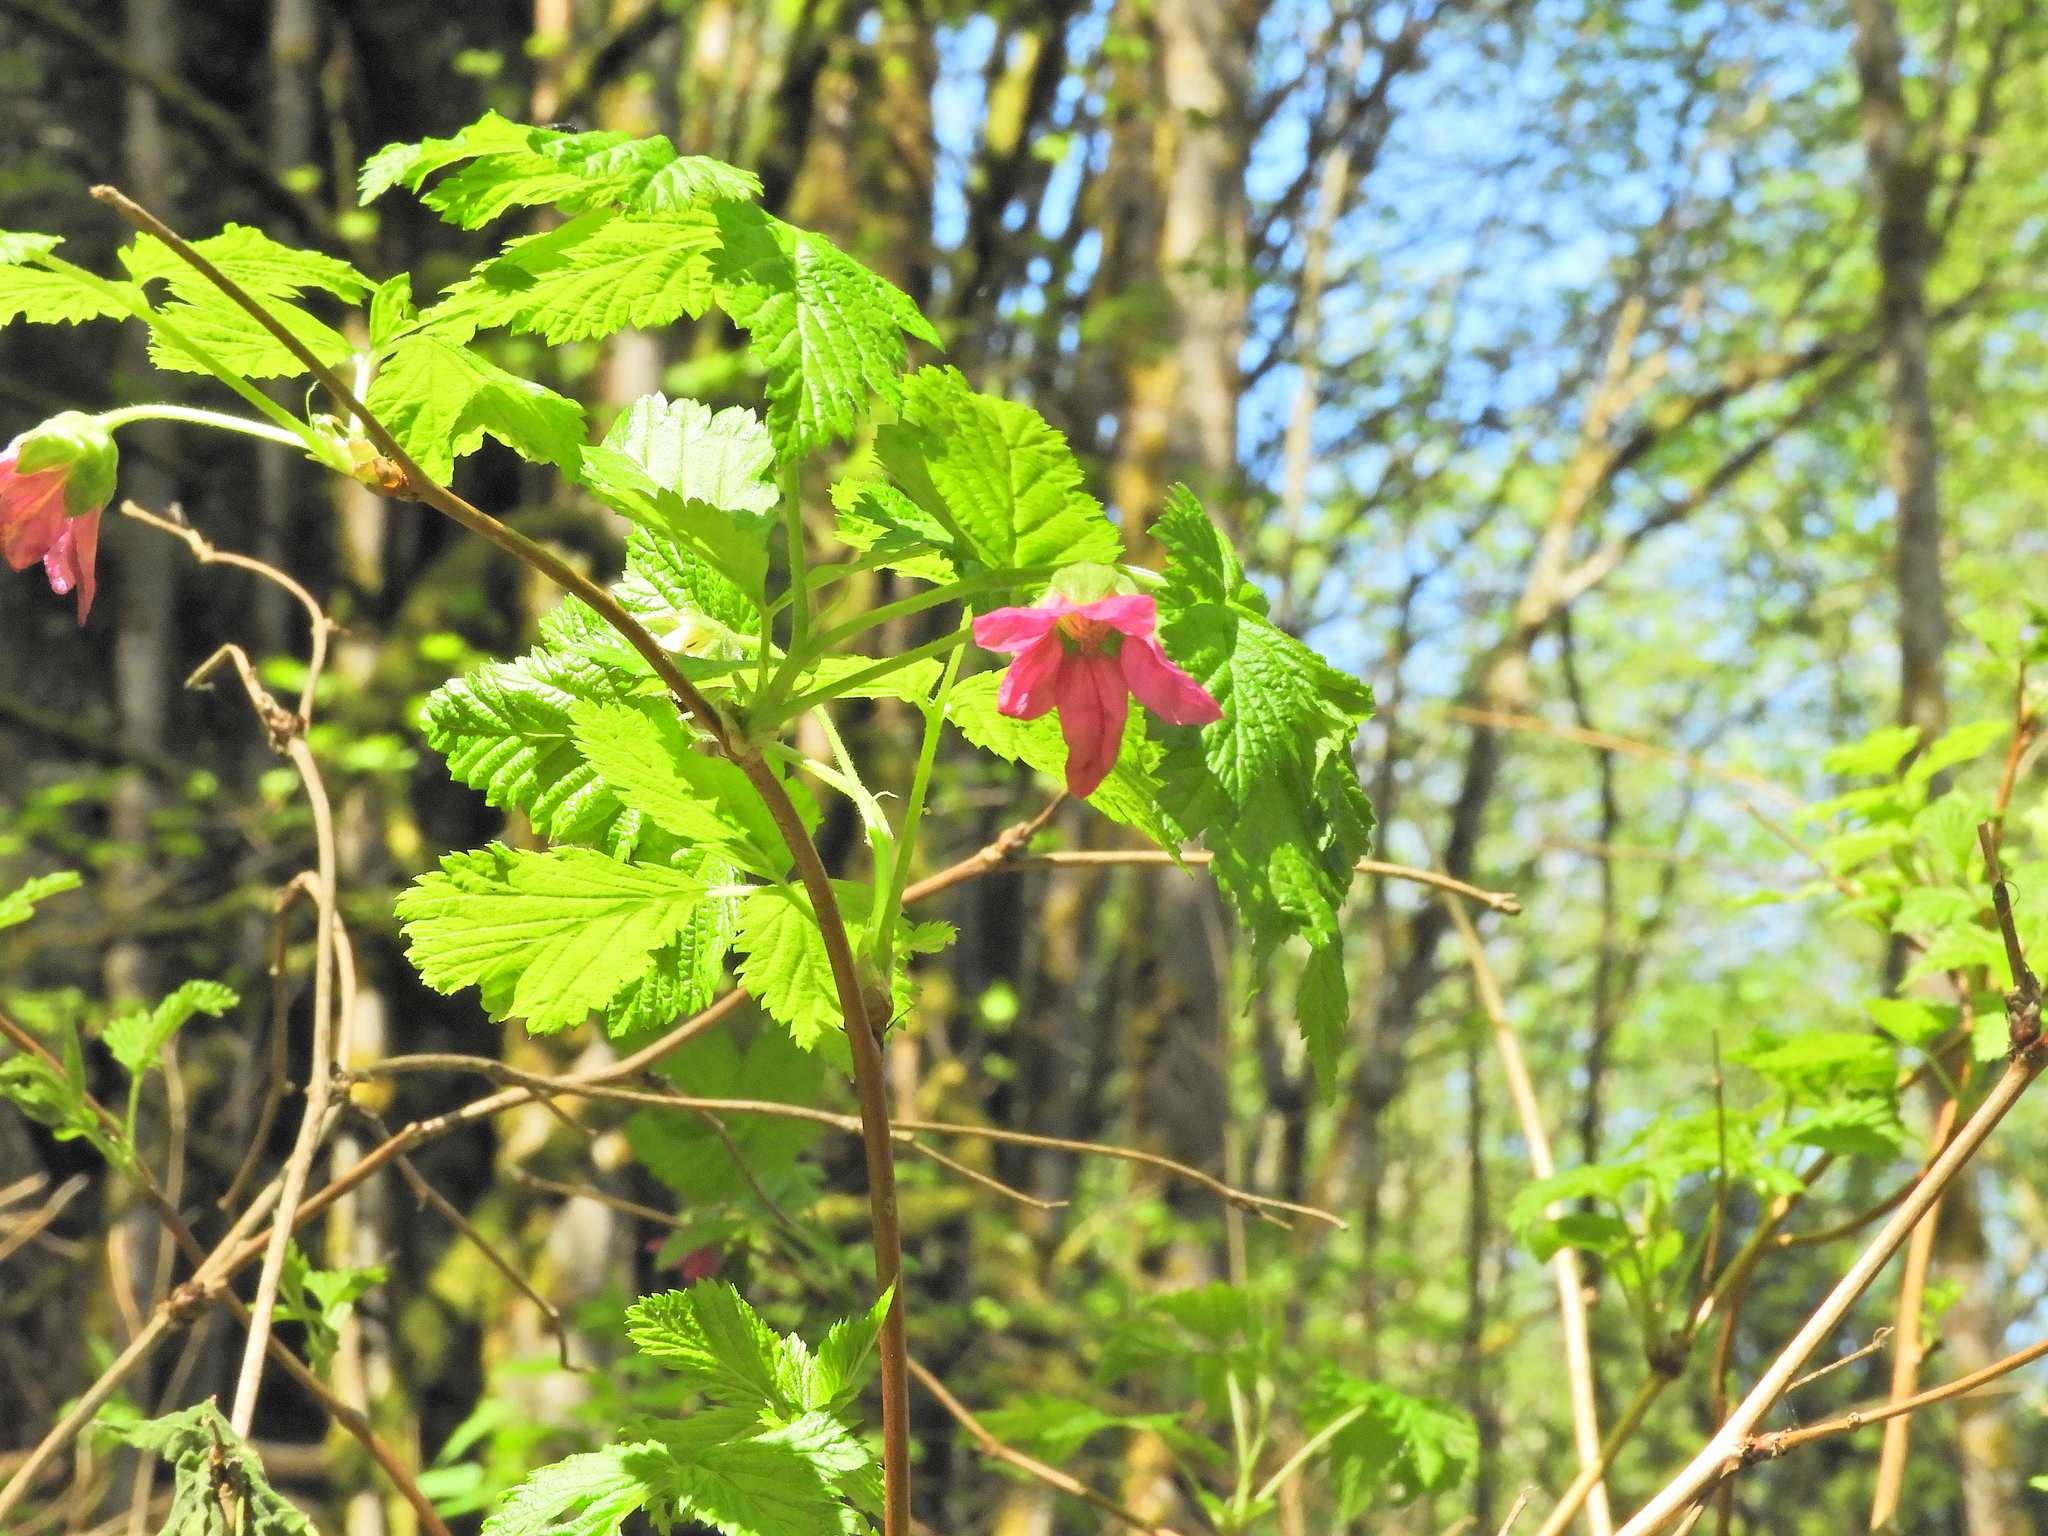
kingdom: Plantae
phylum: Tracheophyta
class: Magnoliopsida
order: Rosales
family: Rosaceae
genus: Rubus
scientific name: Rubus spectabilis
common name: Salmonberry
